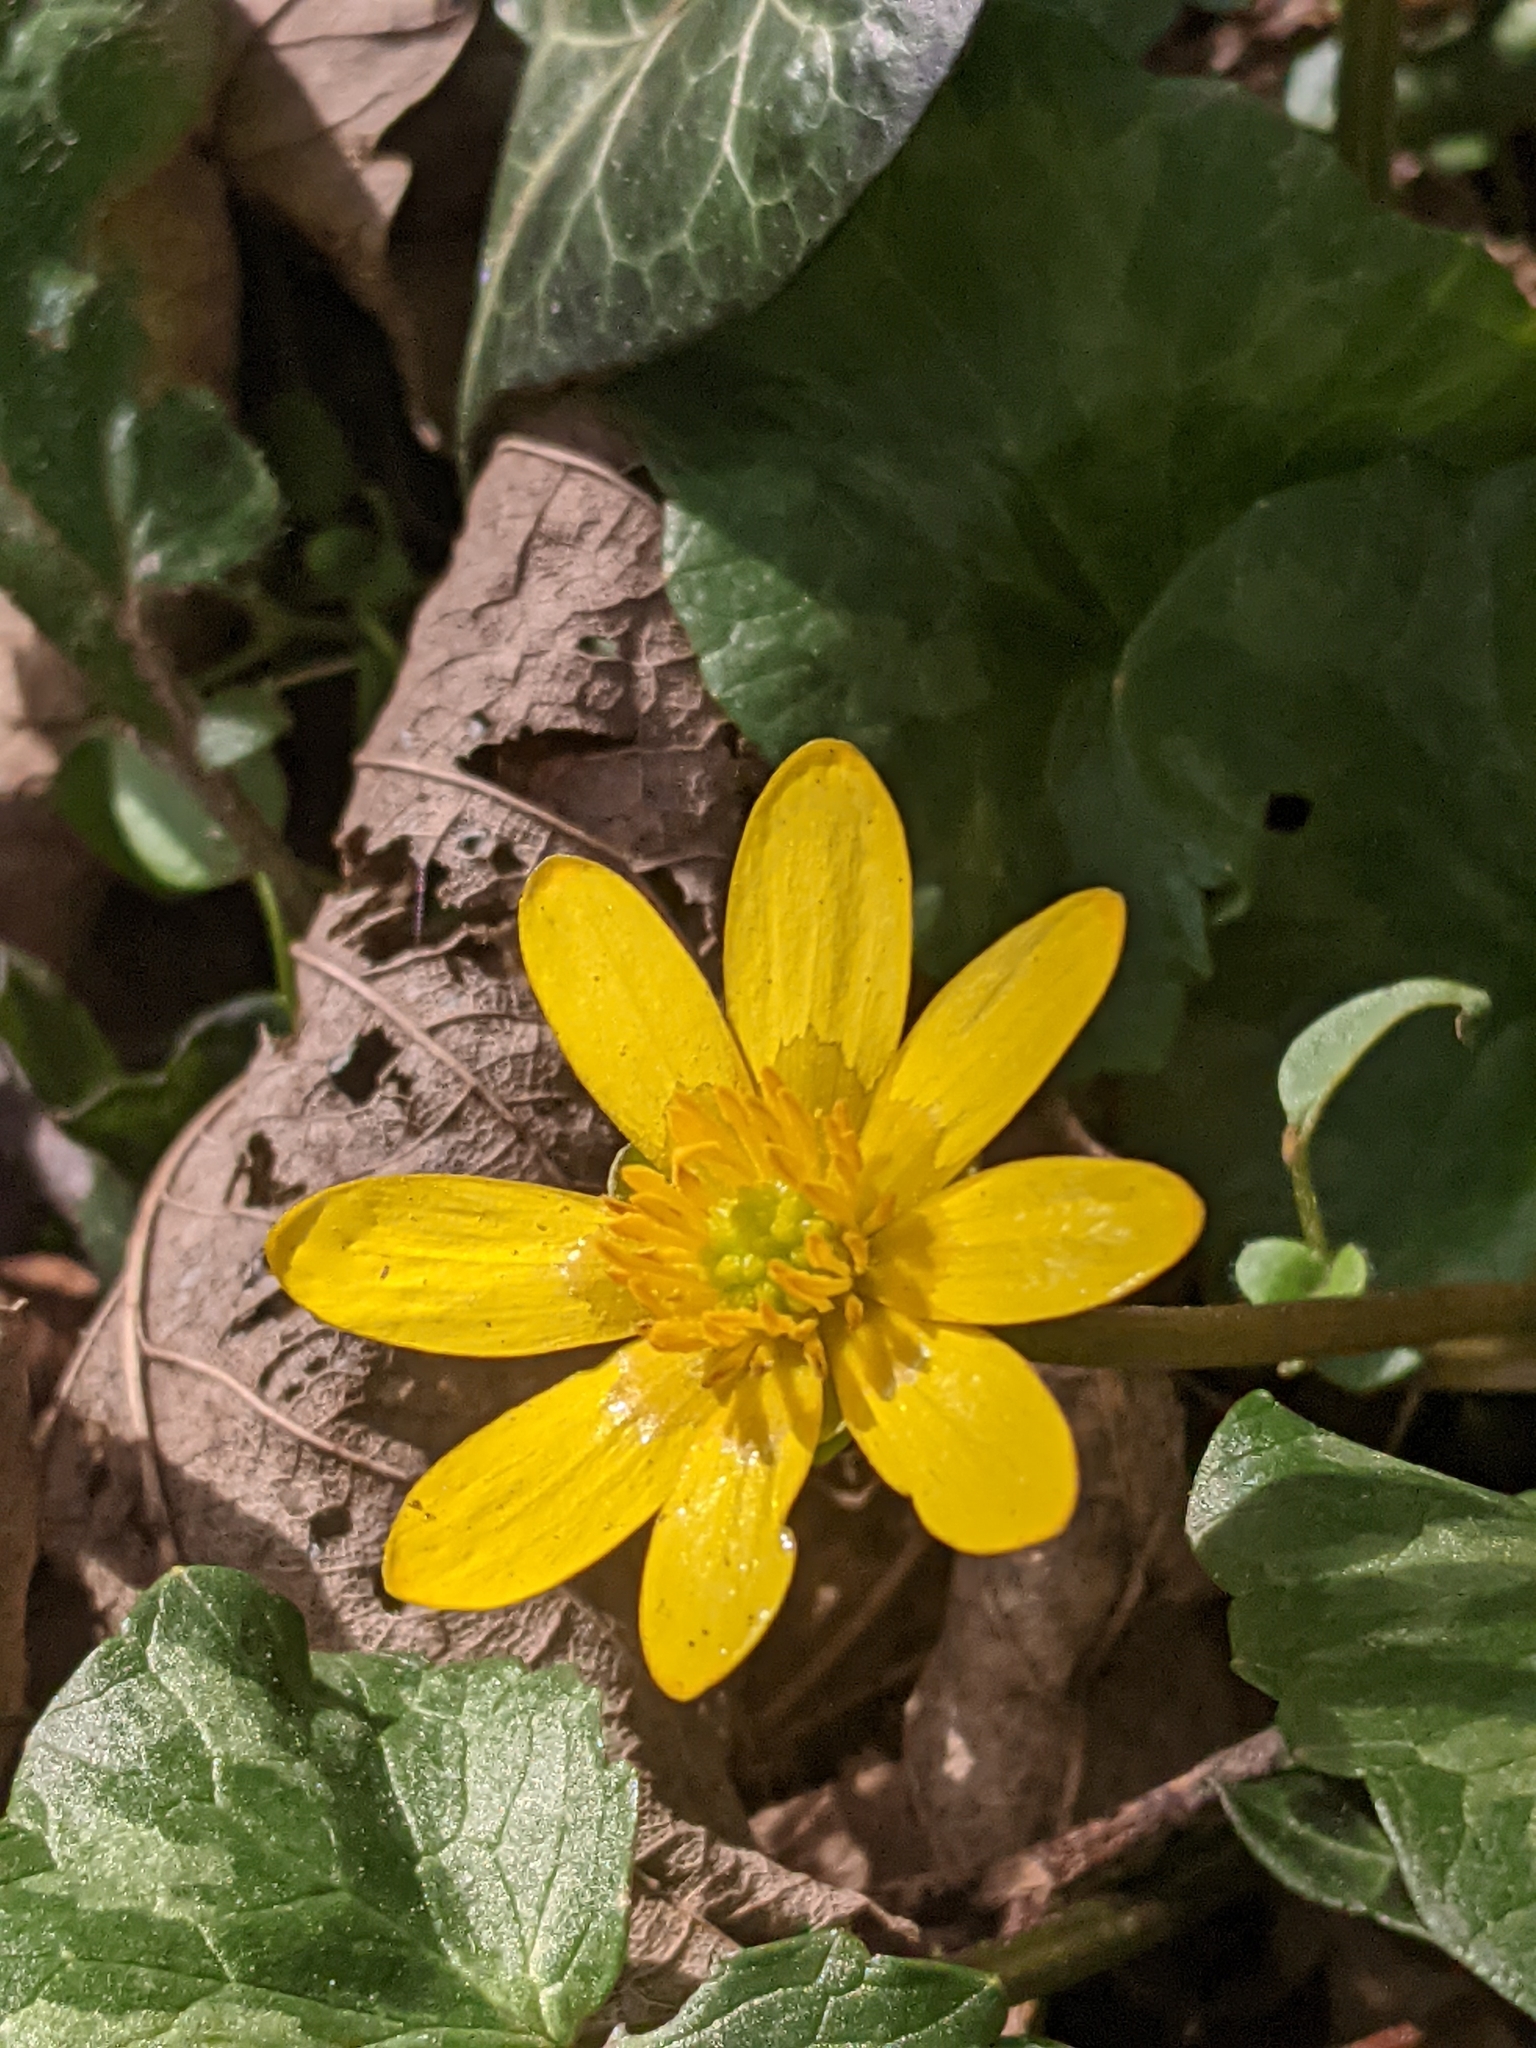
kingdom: Plantae
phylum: Tracheophyta
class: Magnoliopsida
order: Ranunculales
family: Ranunculaceae
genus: Ficaria
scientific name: Ficaria verna
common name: Lesser celandine
